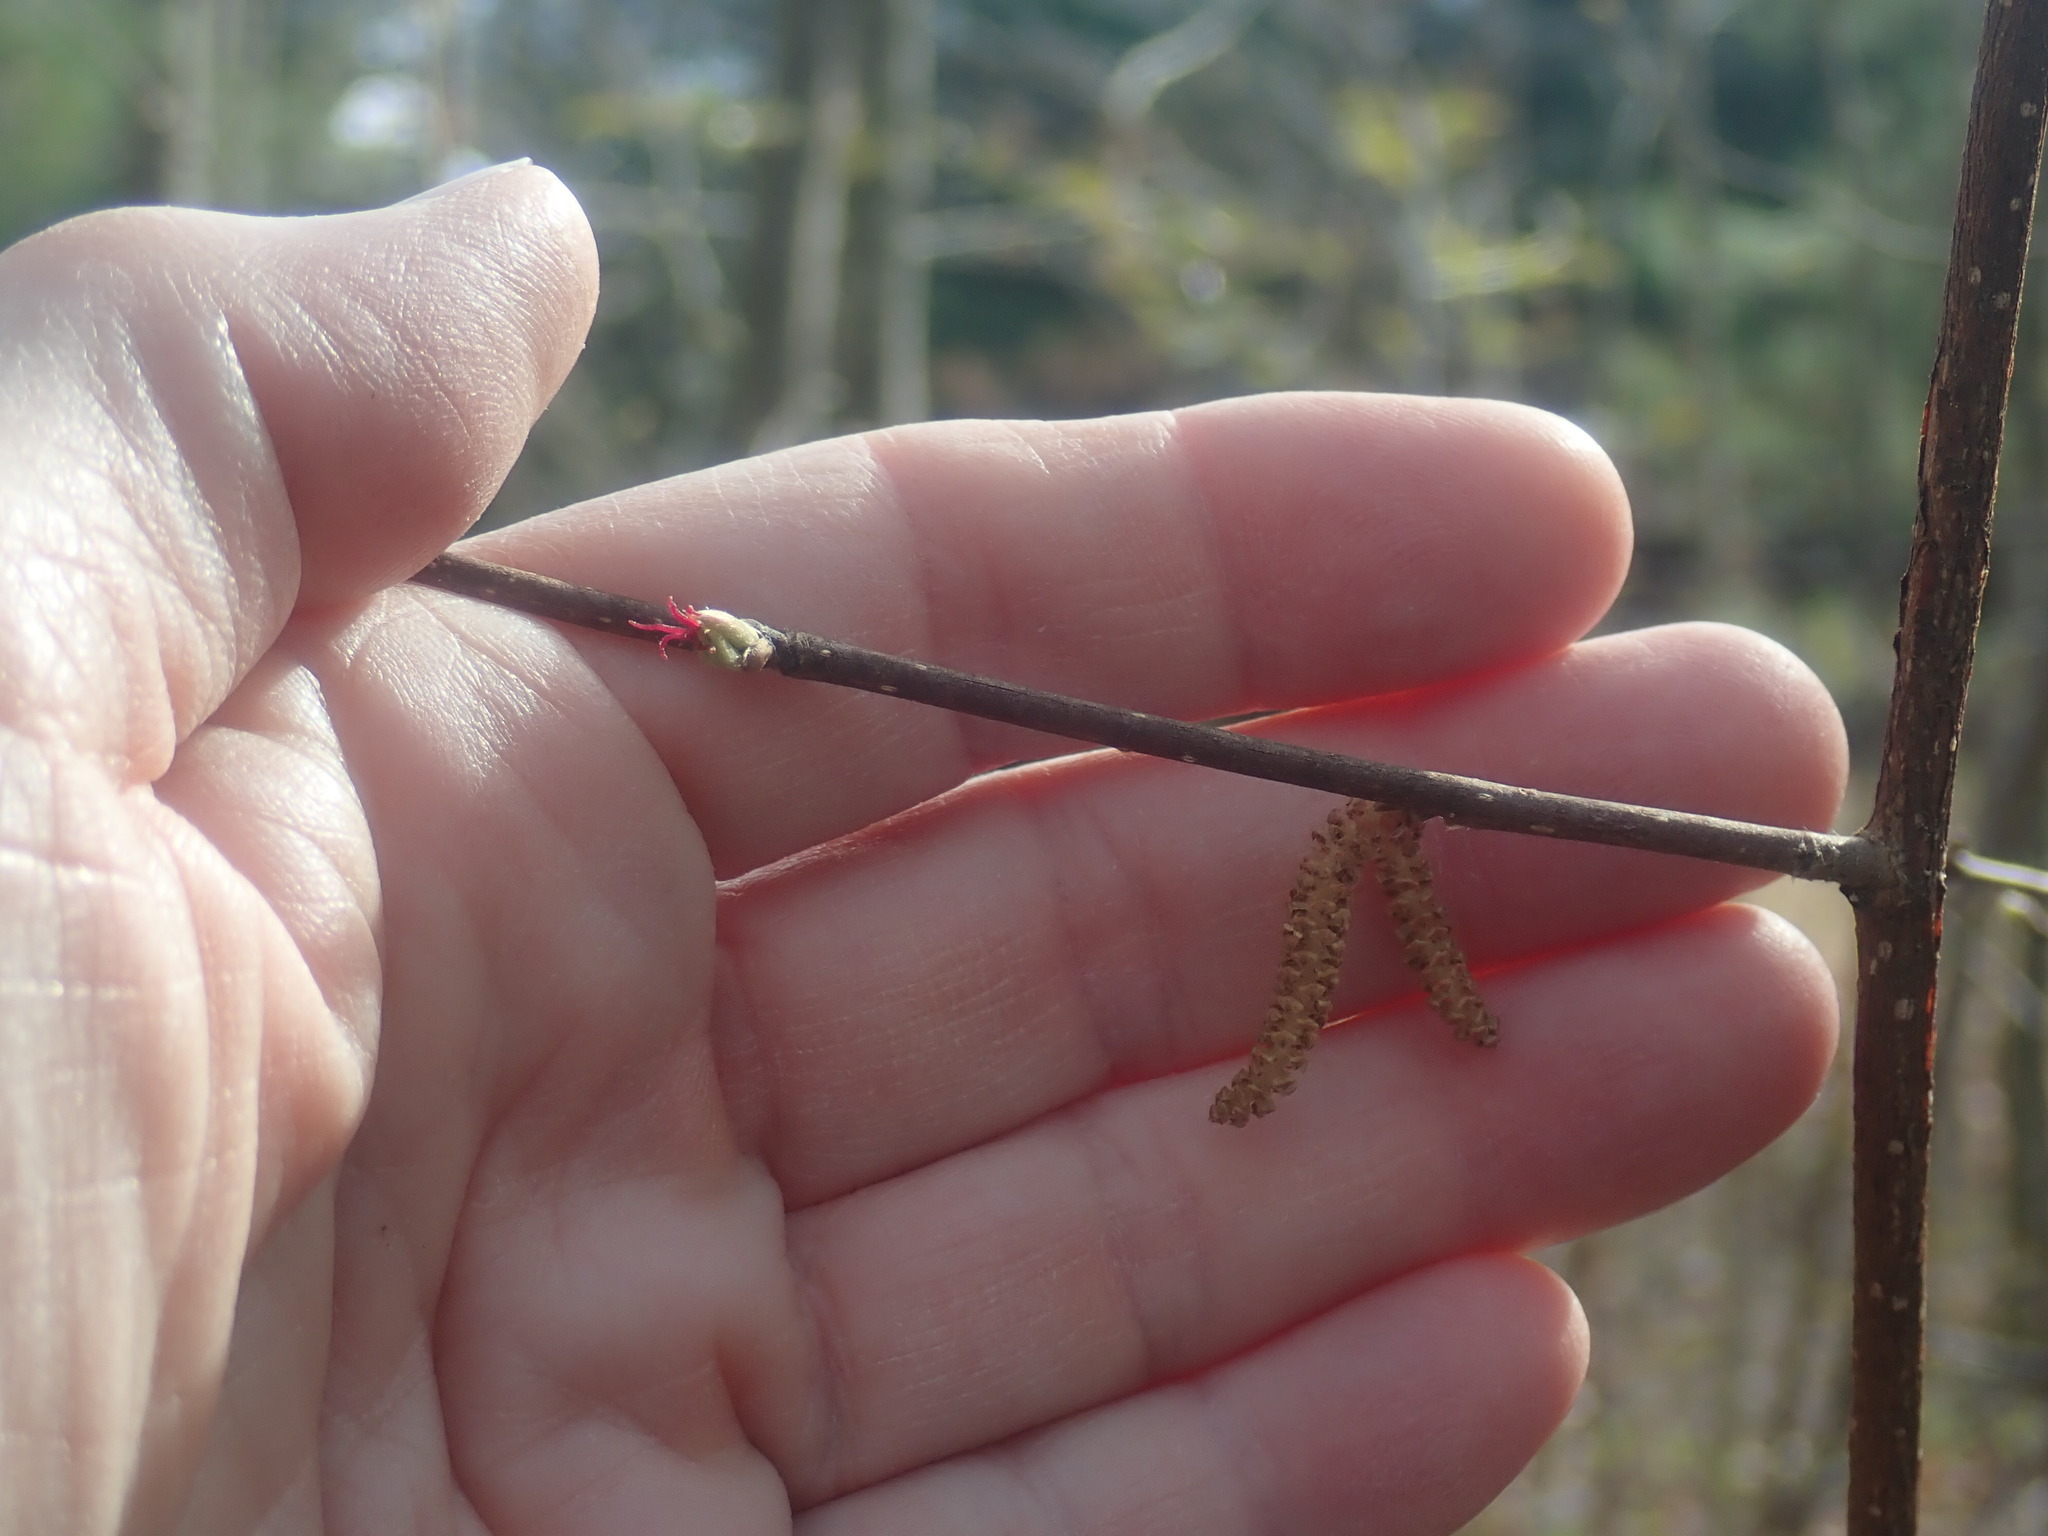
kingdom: Plantae
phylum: Tracheophyta
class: Magnoliopsida
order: Fagales
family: Betulaceae
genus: Corylus
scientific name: Corylus cornuta
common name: Beaked hazel
